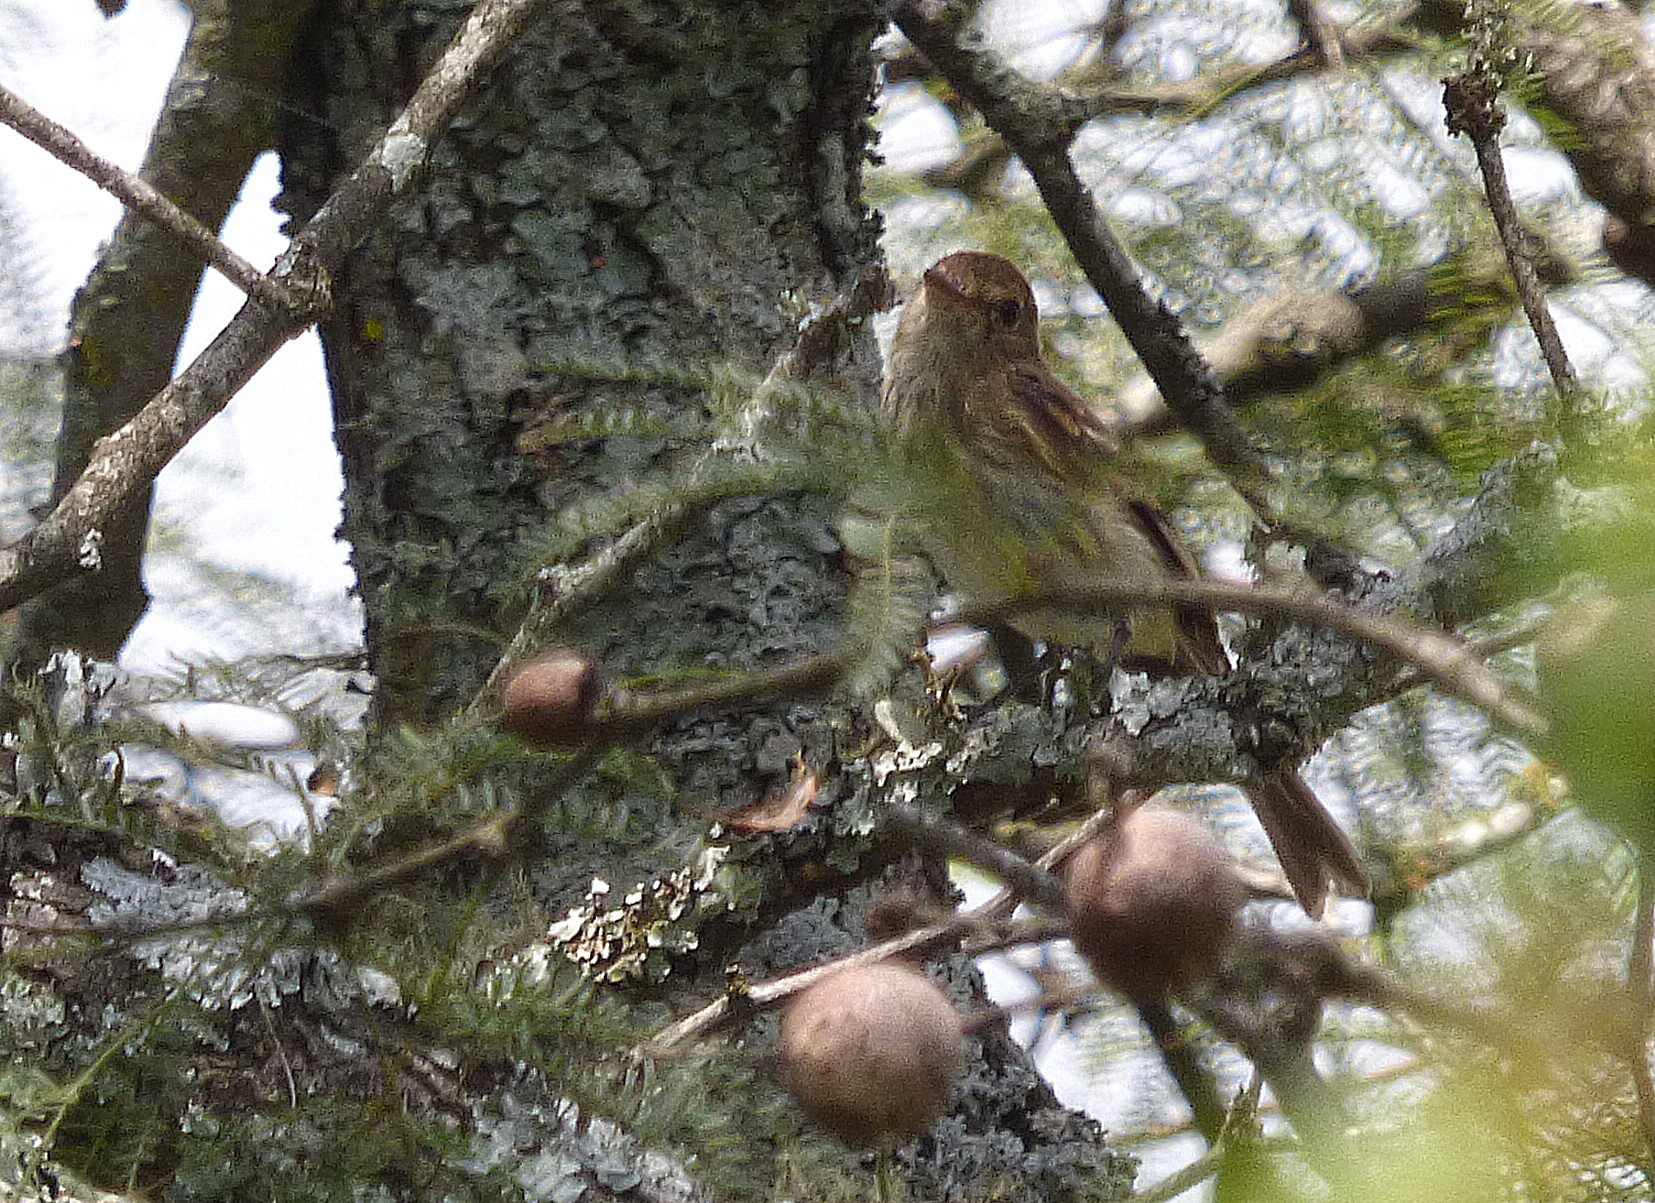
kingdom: Animalia
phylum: Chordata
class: Aves
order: Passeriformes
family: Tyrannidae
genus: Myiophobus
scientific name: Myiophobus fasciatus
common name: Bran-colored flycatcher
